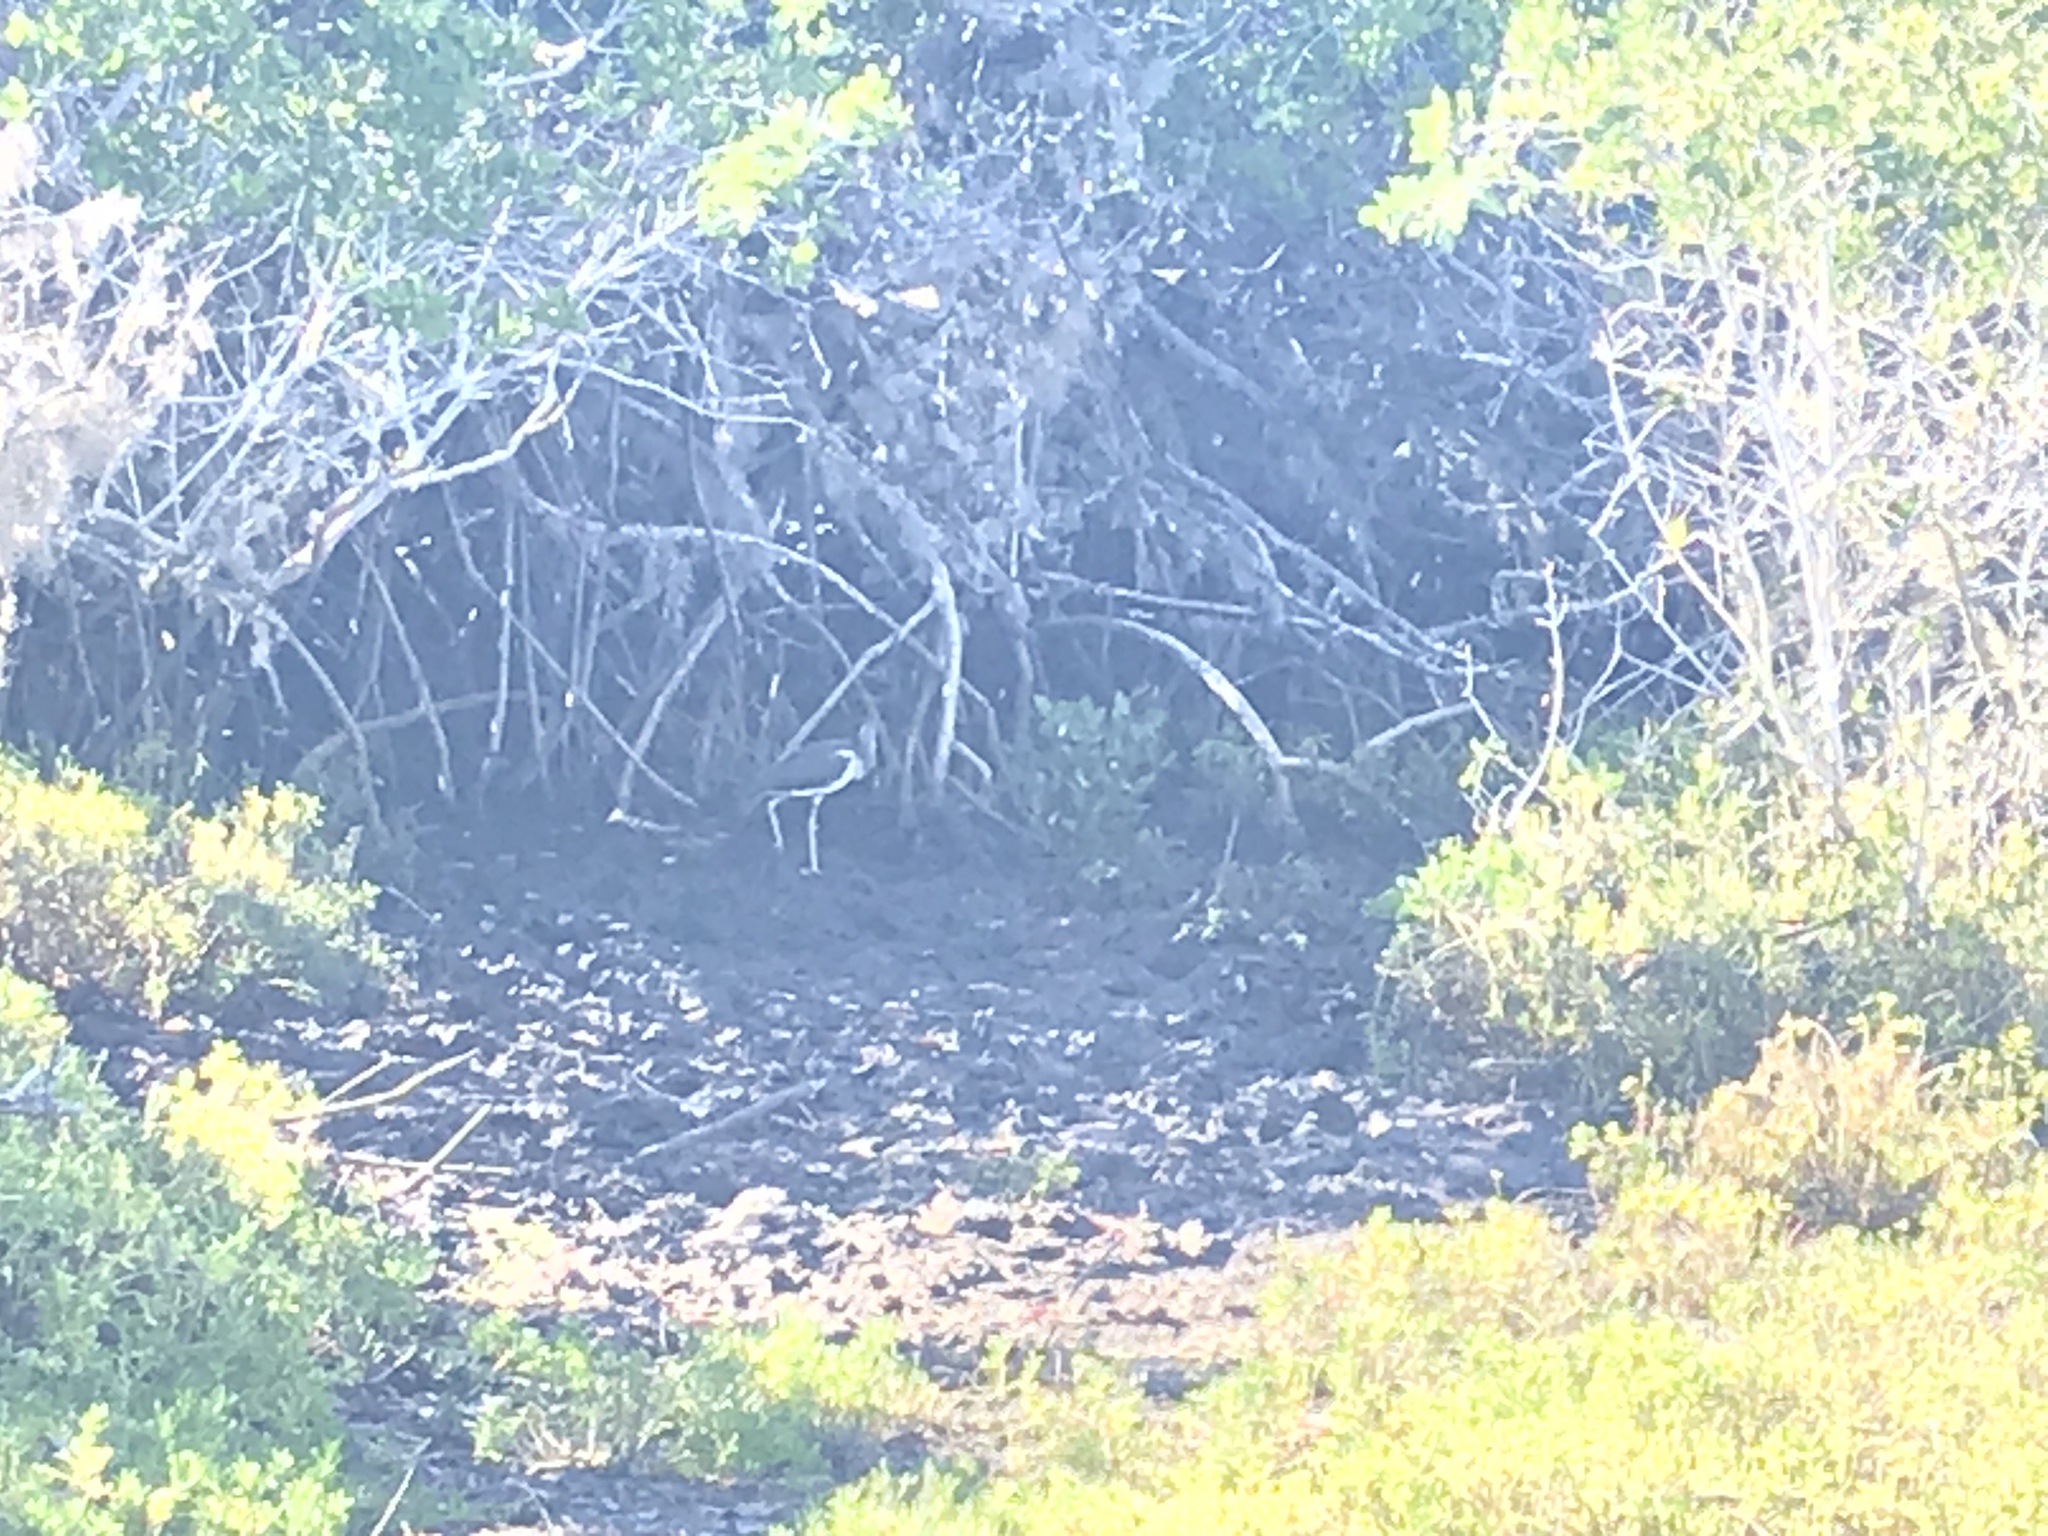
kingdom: Animalia
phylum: Chordata
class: Aves
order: Pelecaniformes
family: Threskiornithidae
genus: Eudocimus
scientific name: Eudocimus albus
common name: White ibis
